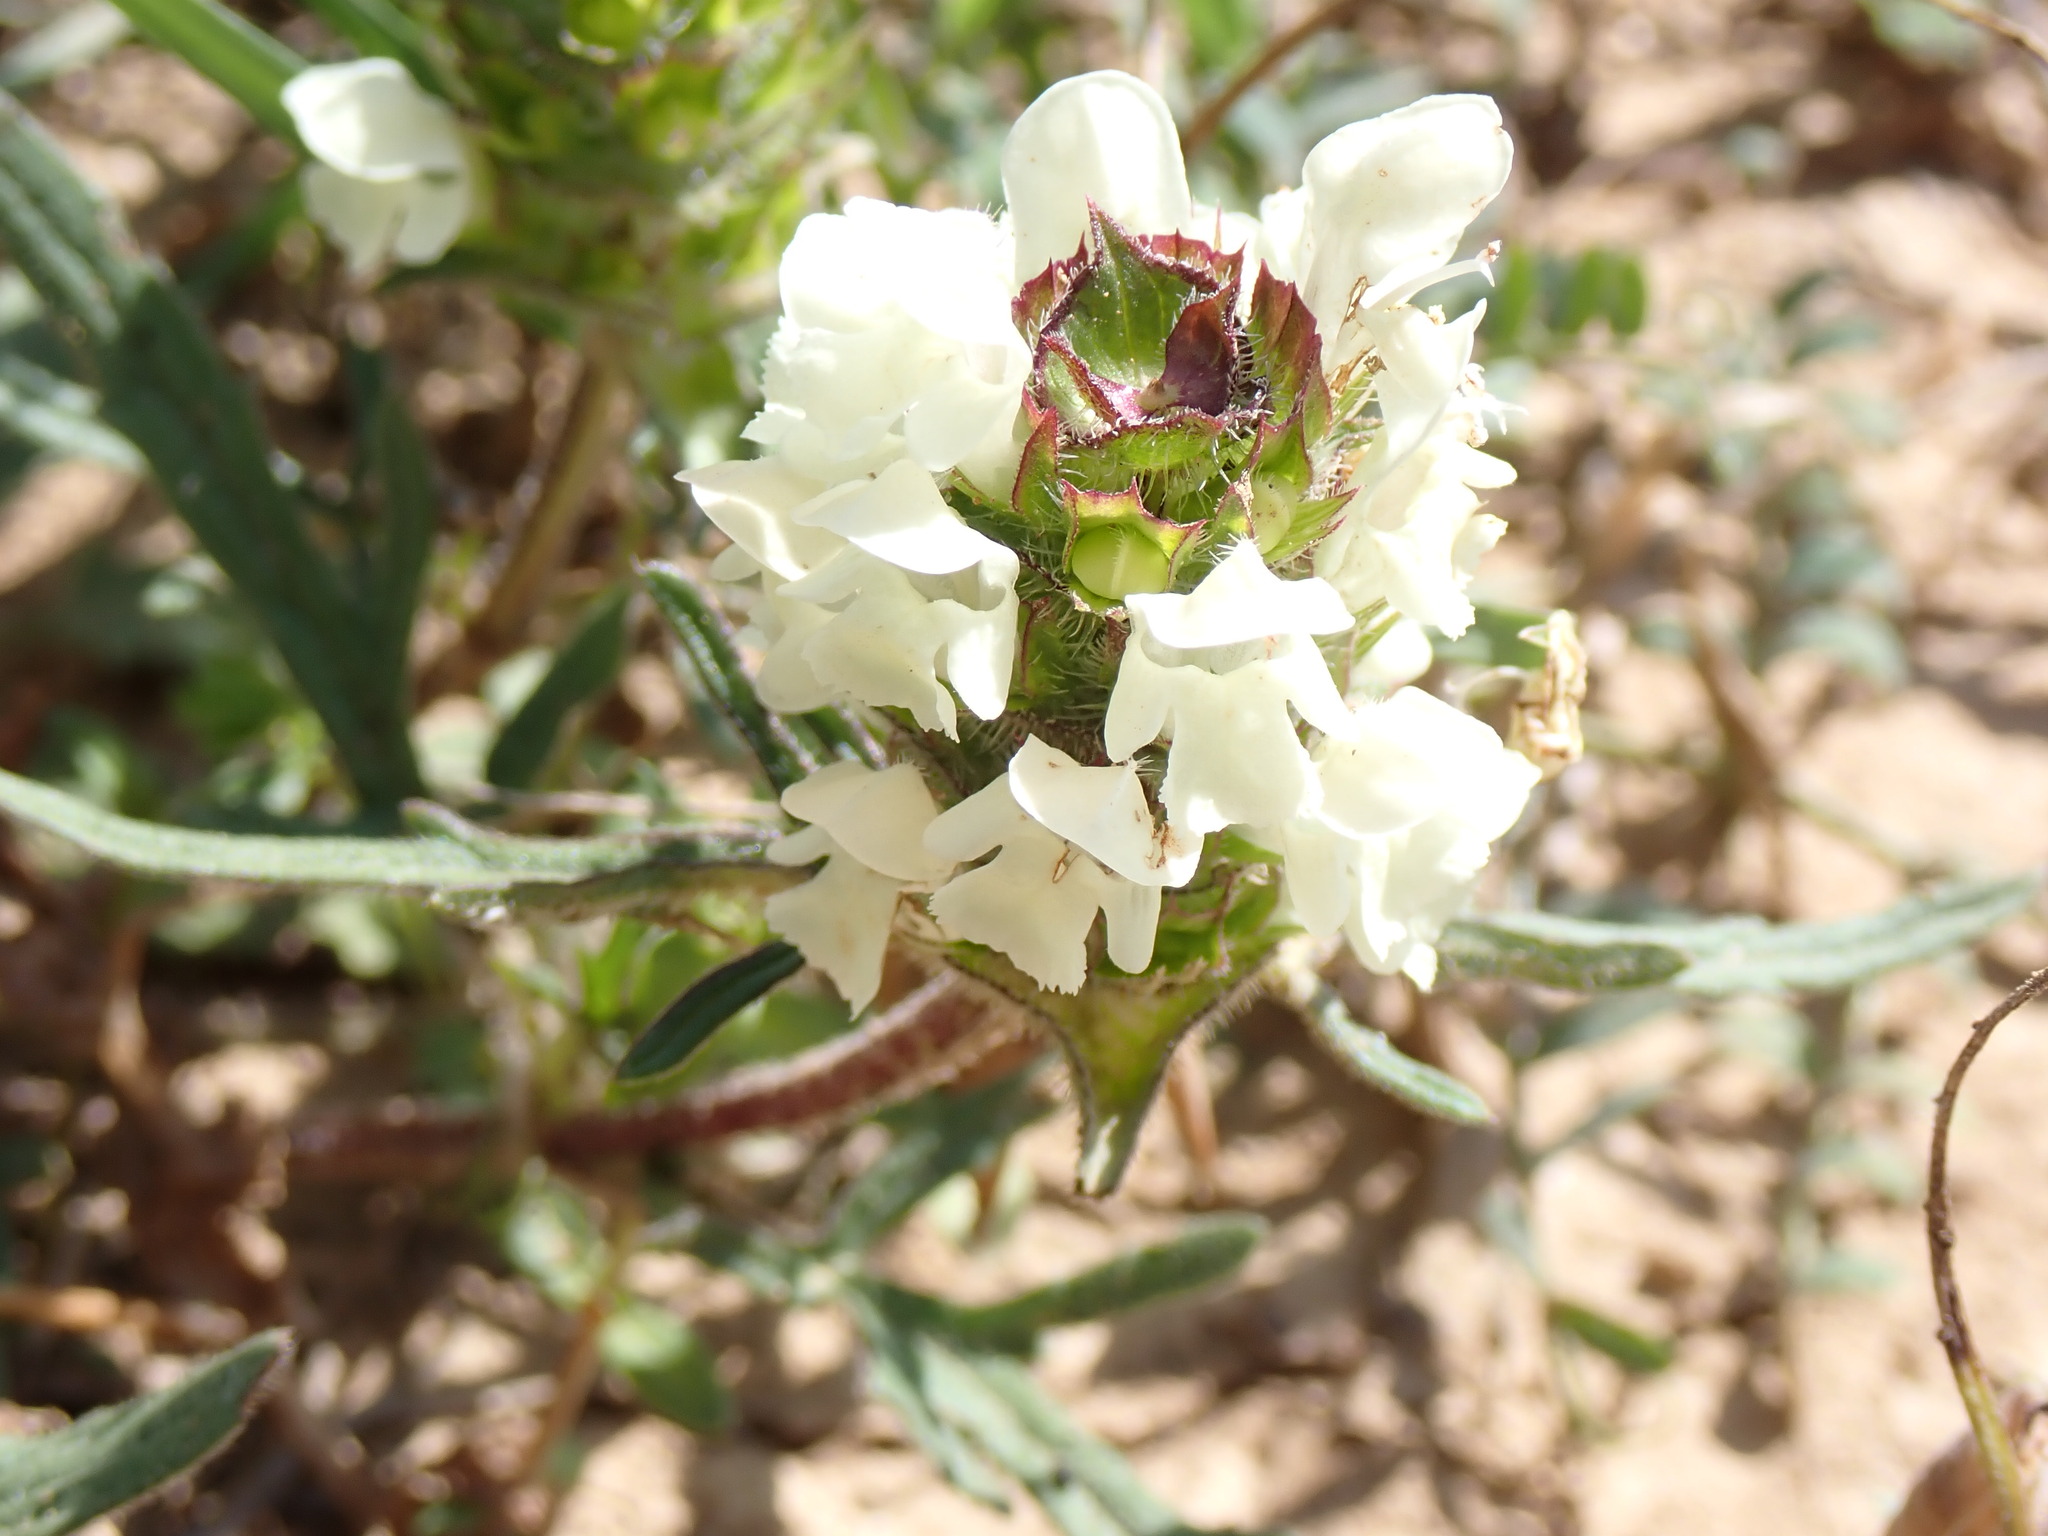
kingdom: Plantae
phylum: Tracheophyta
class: Magnoliopsida
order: Lamiales
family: Lamiaceae
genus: Prunella
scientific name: Prunella laciniata
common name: Cut-leaved selfheal
